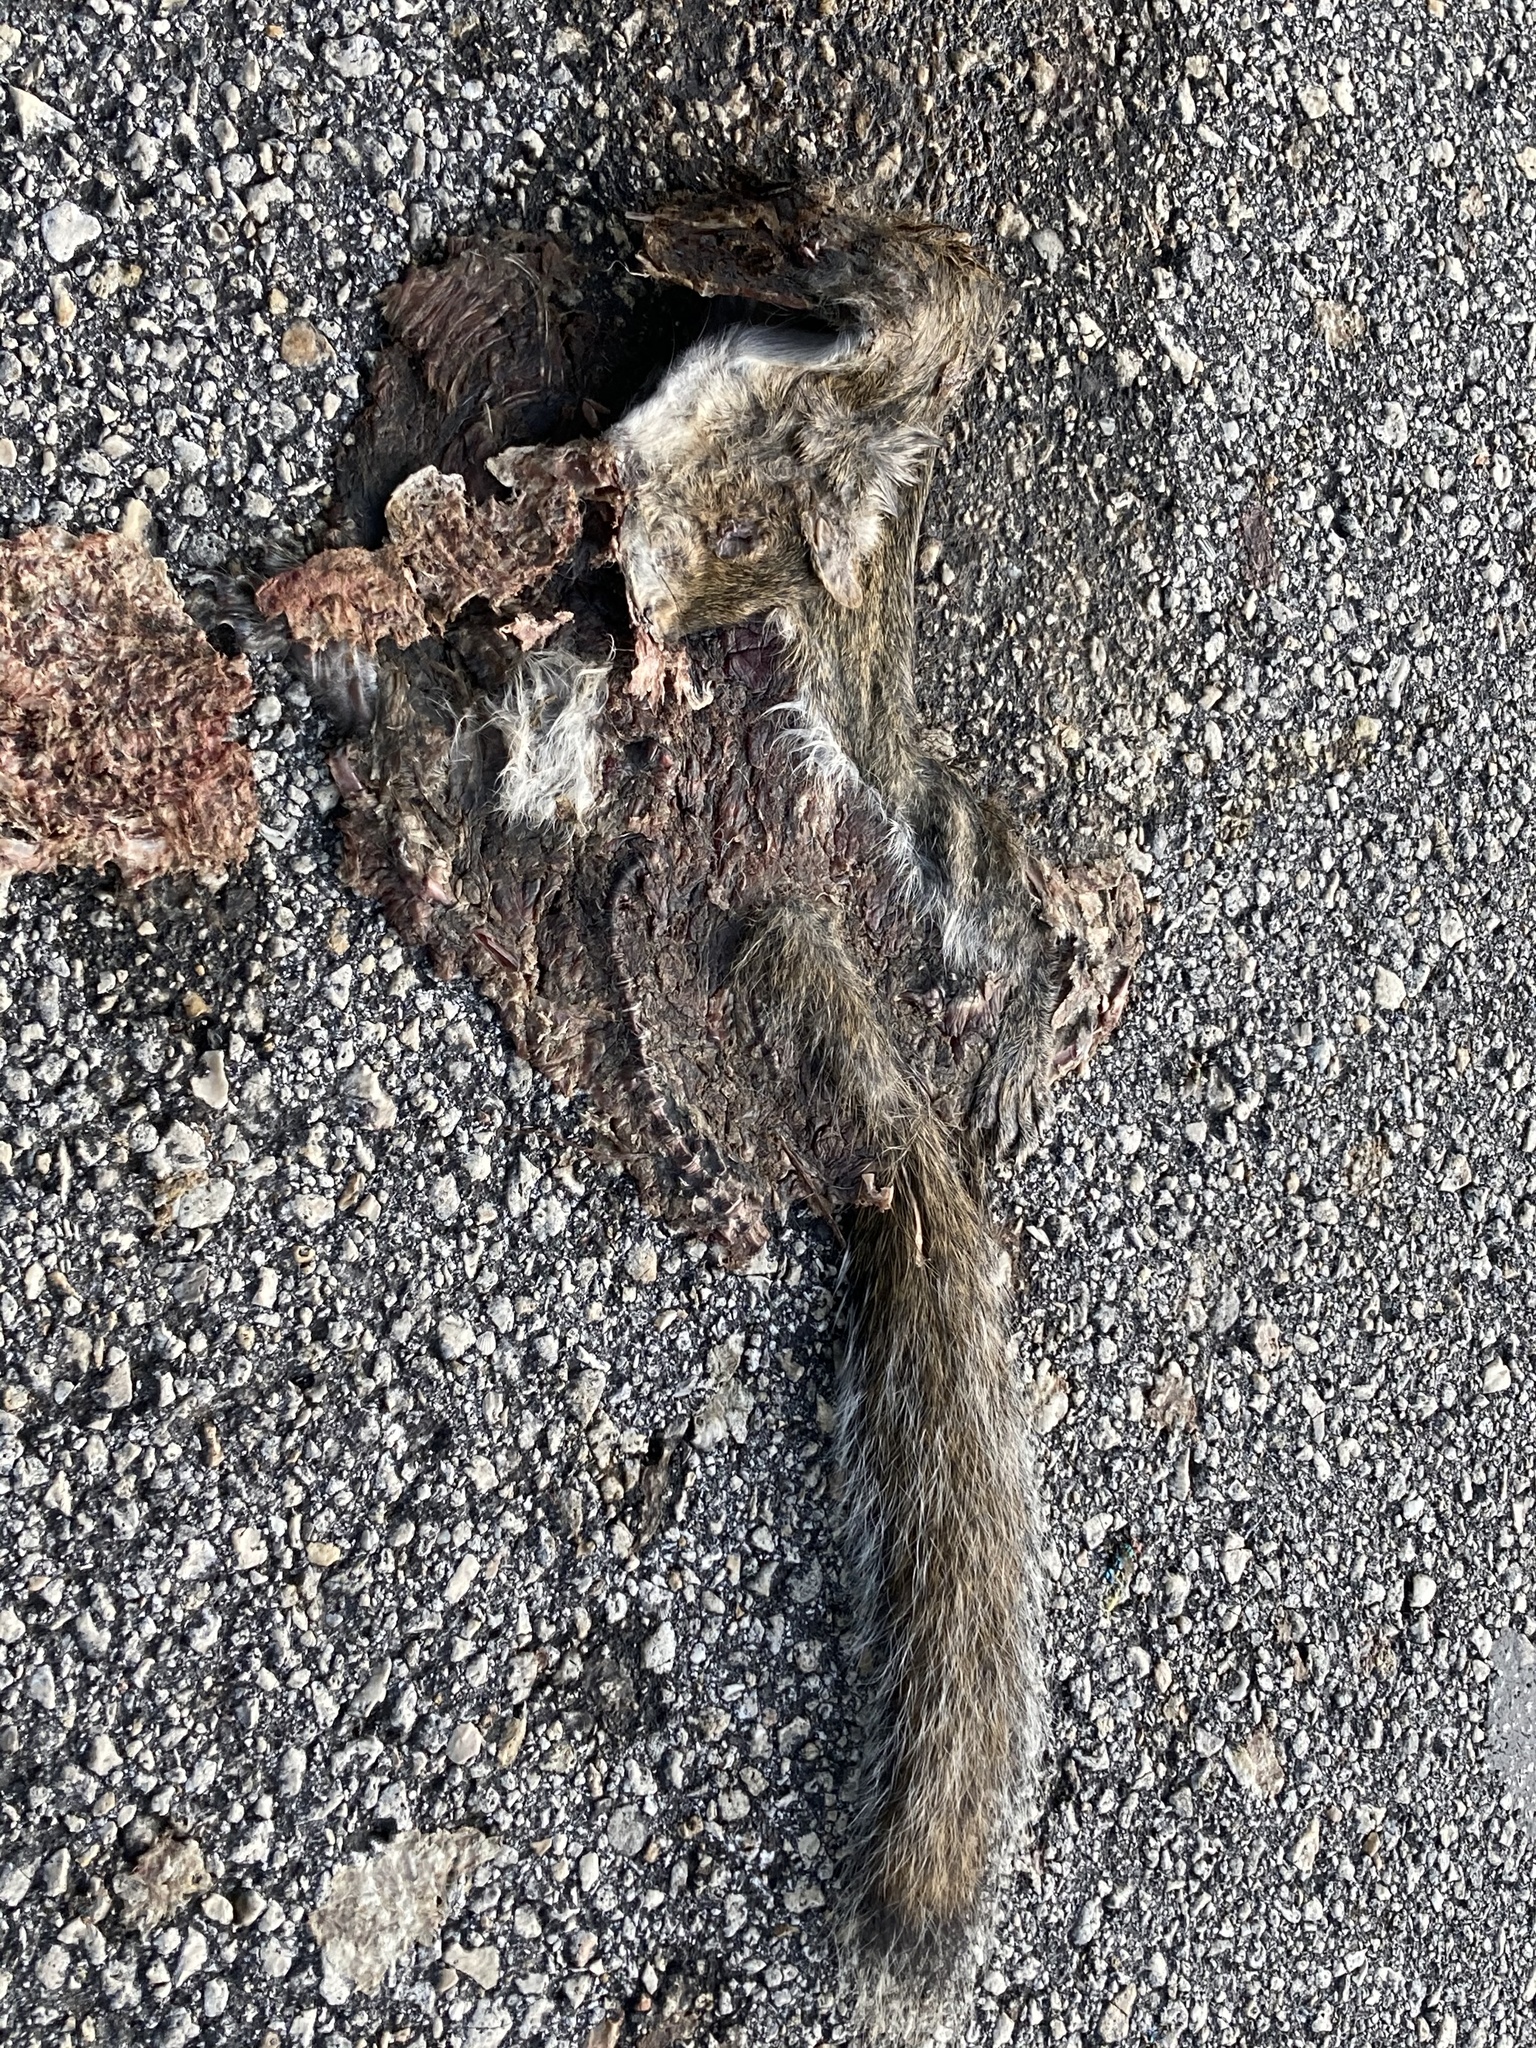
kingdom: Animalia
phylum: Chordata
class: Mammalia
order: Rodentia
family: Sciuridae
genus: Sciurus
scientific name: Sciurus carolinensis
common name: Eastern gray squirrel
